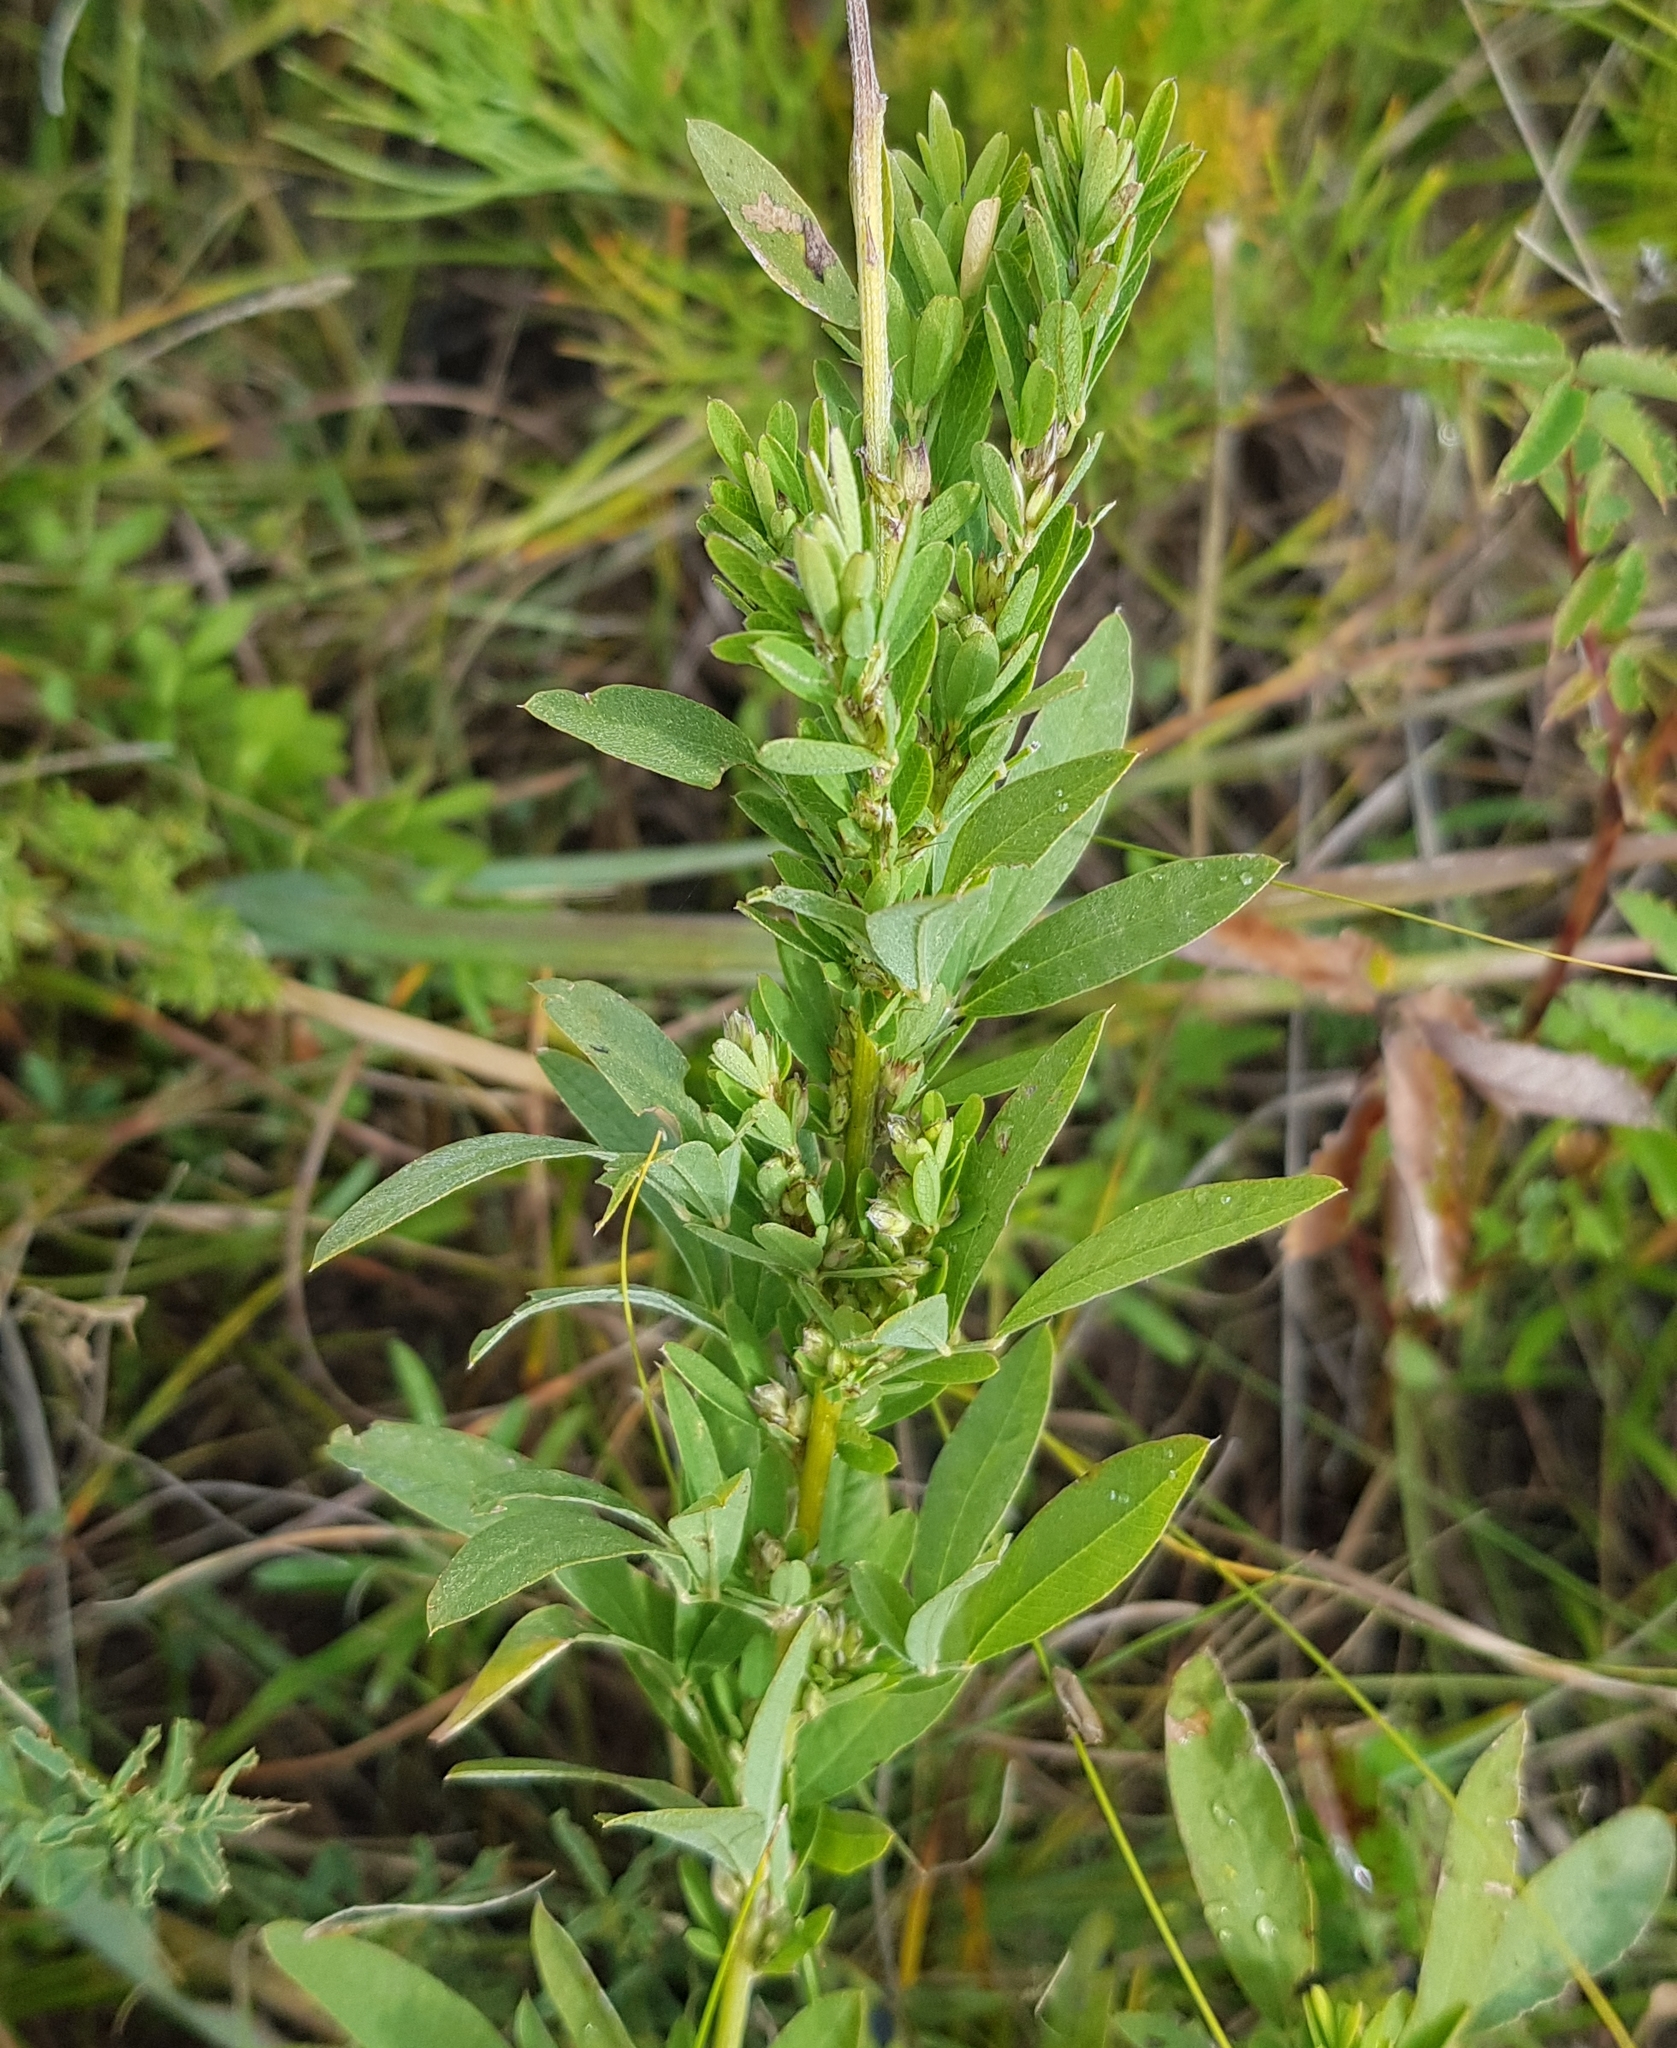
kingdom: Plantae
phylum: Tracheophyta
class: Magnoliopsida
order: Fabales
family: Fabaceae
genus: Lespedeza
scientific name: Lespedeza juncea
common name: Siberian lespedeza
